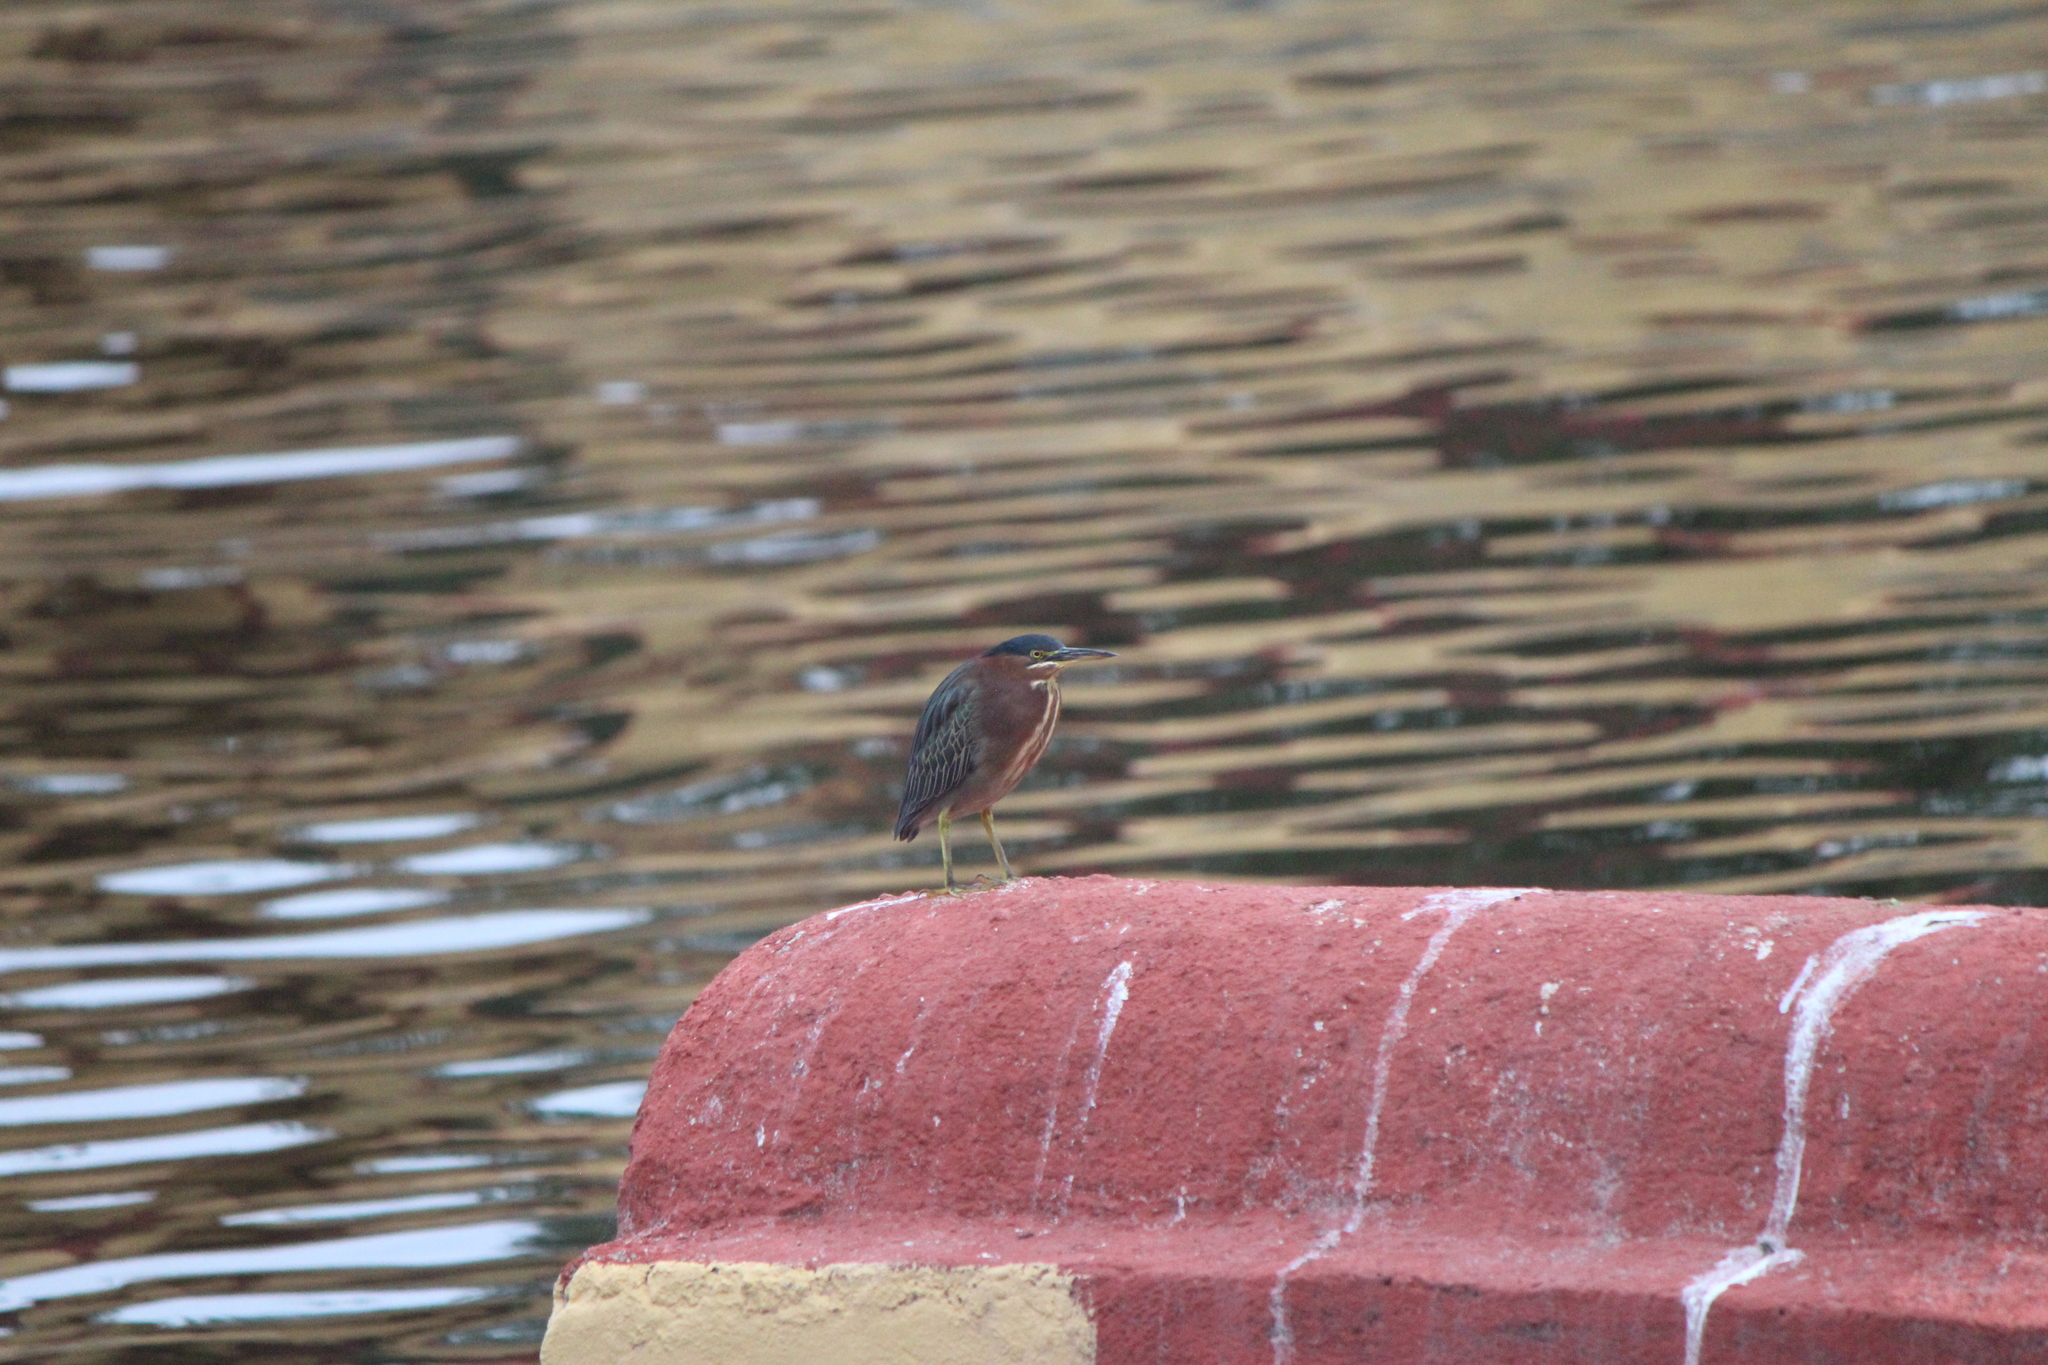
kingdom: Animalia
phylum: Chordata
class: Aves
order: Pelecaniformes
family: Ardeidae
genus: Butorides
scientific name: Butorides virescens
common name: Green heron
